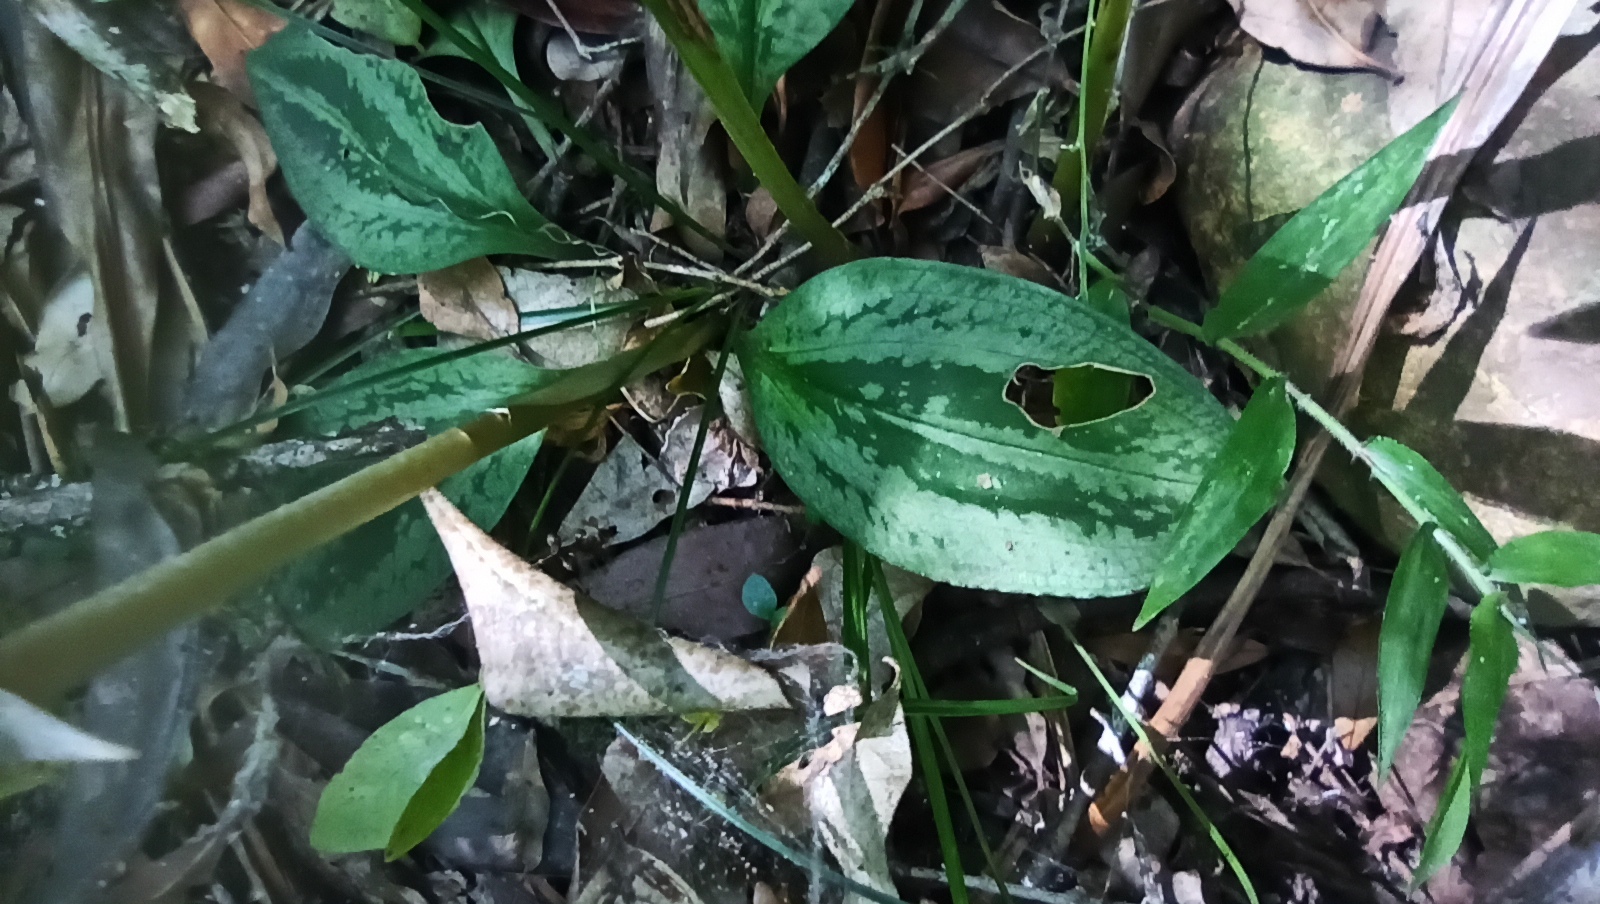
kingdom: Plantae
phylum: Tracheophyta
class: Liliopsida
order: Asparagales
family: Orchidaceae
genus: Cyclopogon
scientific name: Cyclopogon chloroleucus
